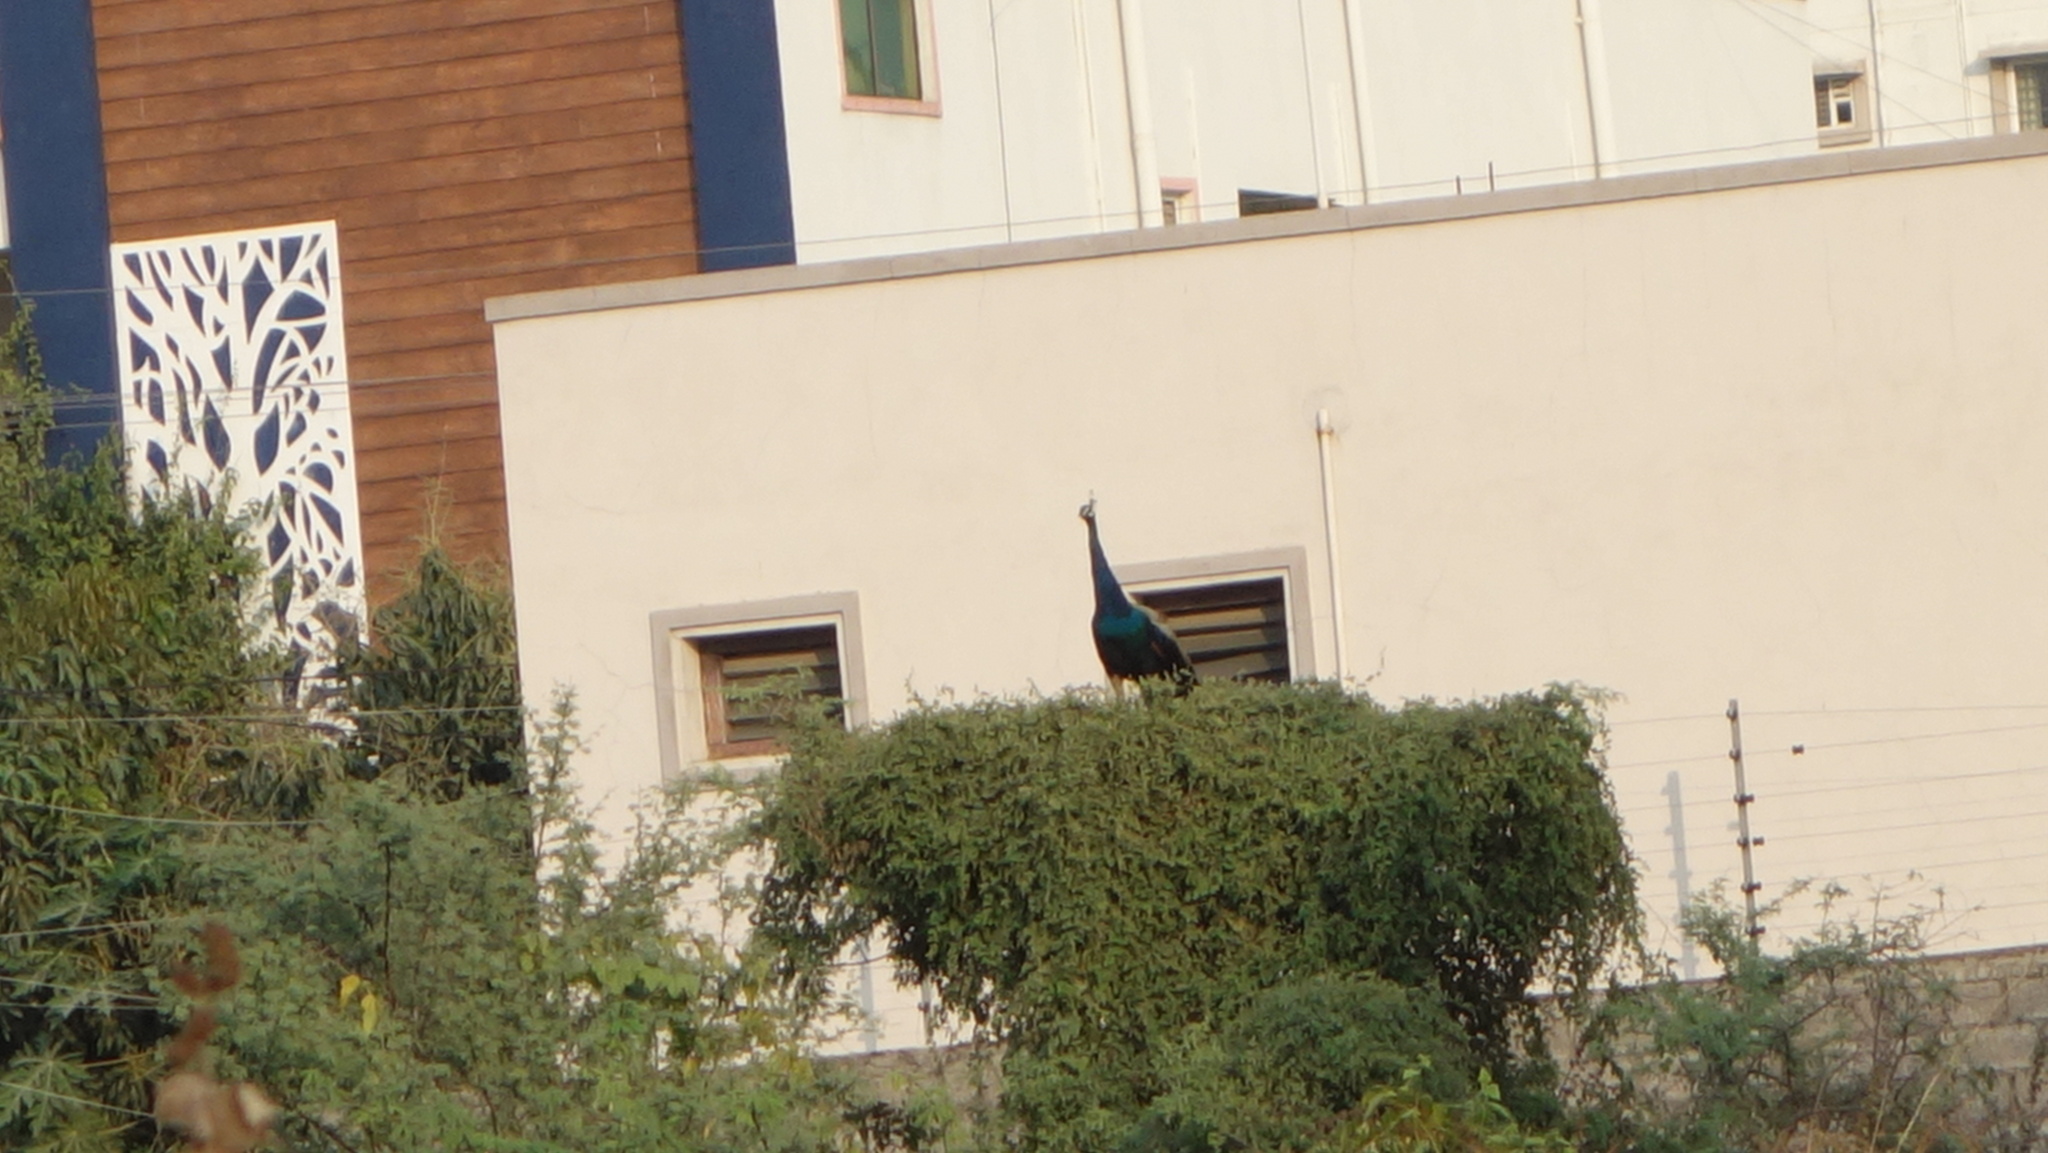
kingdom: Animalia
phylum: Chordata
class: Aves
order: Galliformes
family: Phasianidae
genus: Pavo
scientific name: Pavo cristatus
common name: Indian peafowl
